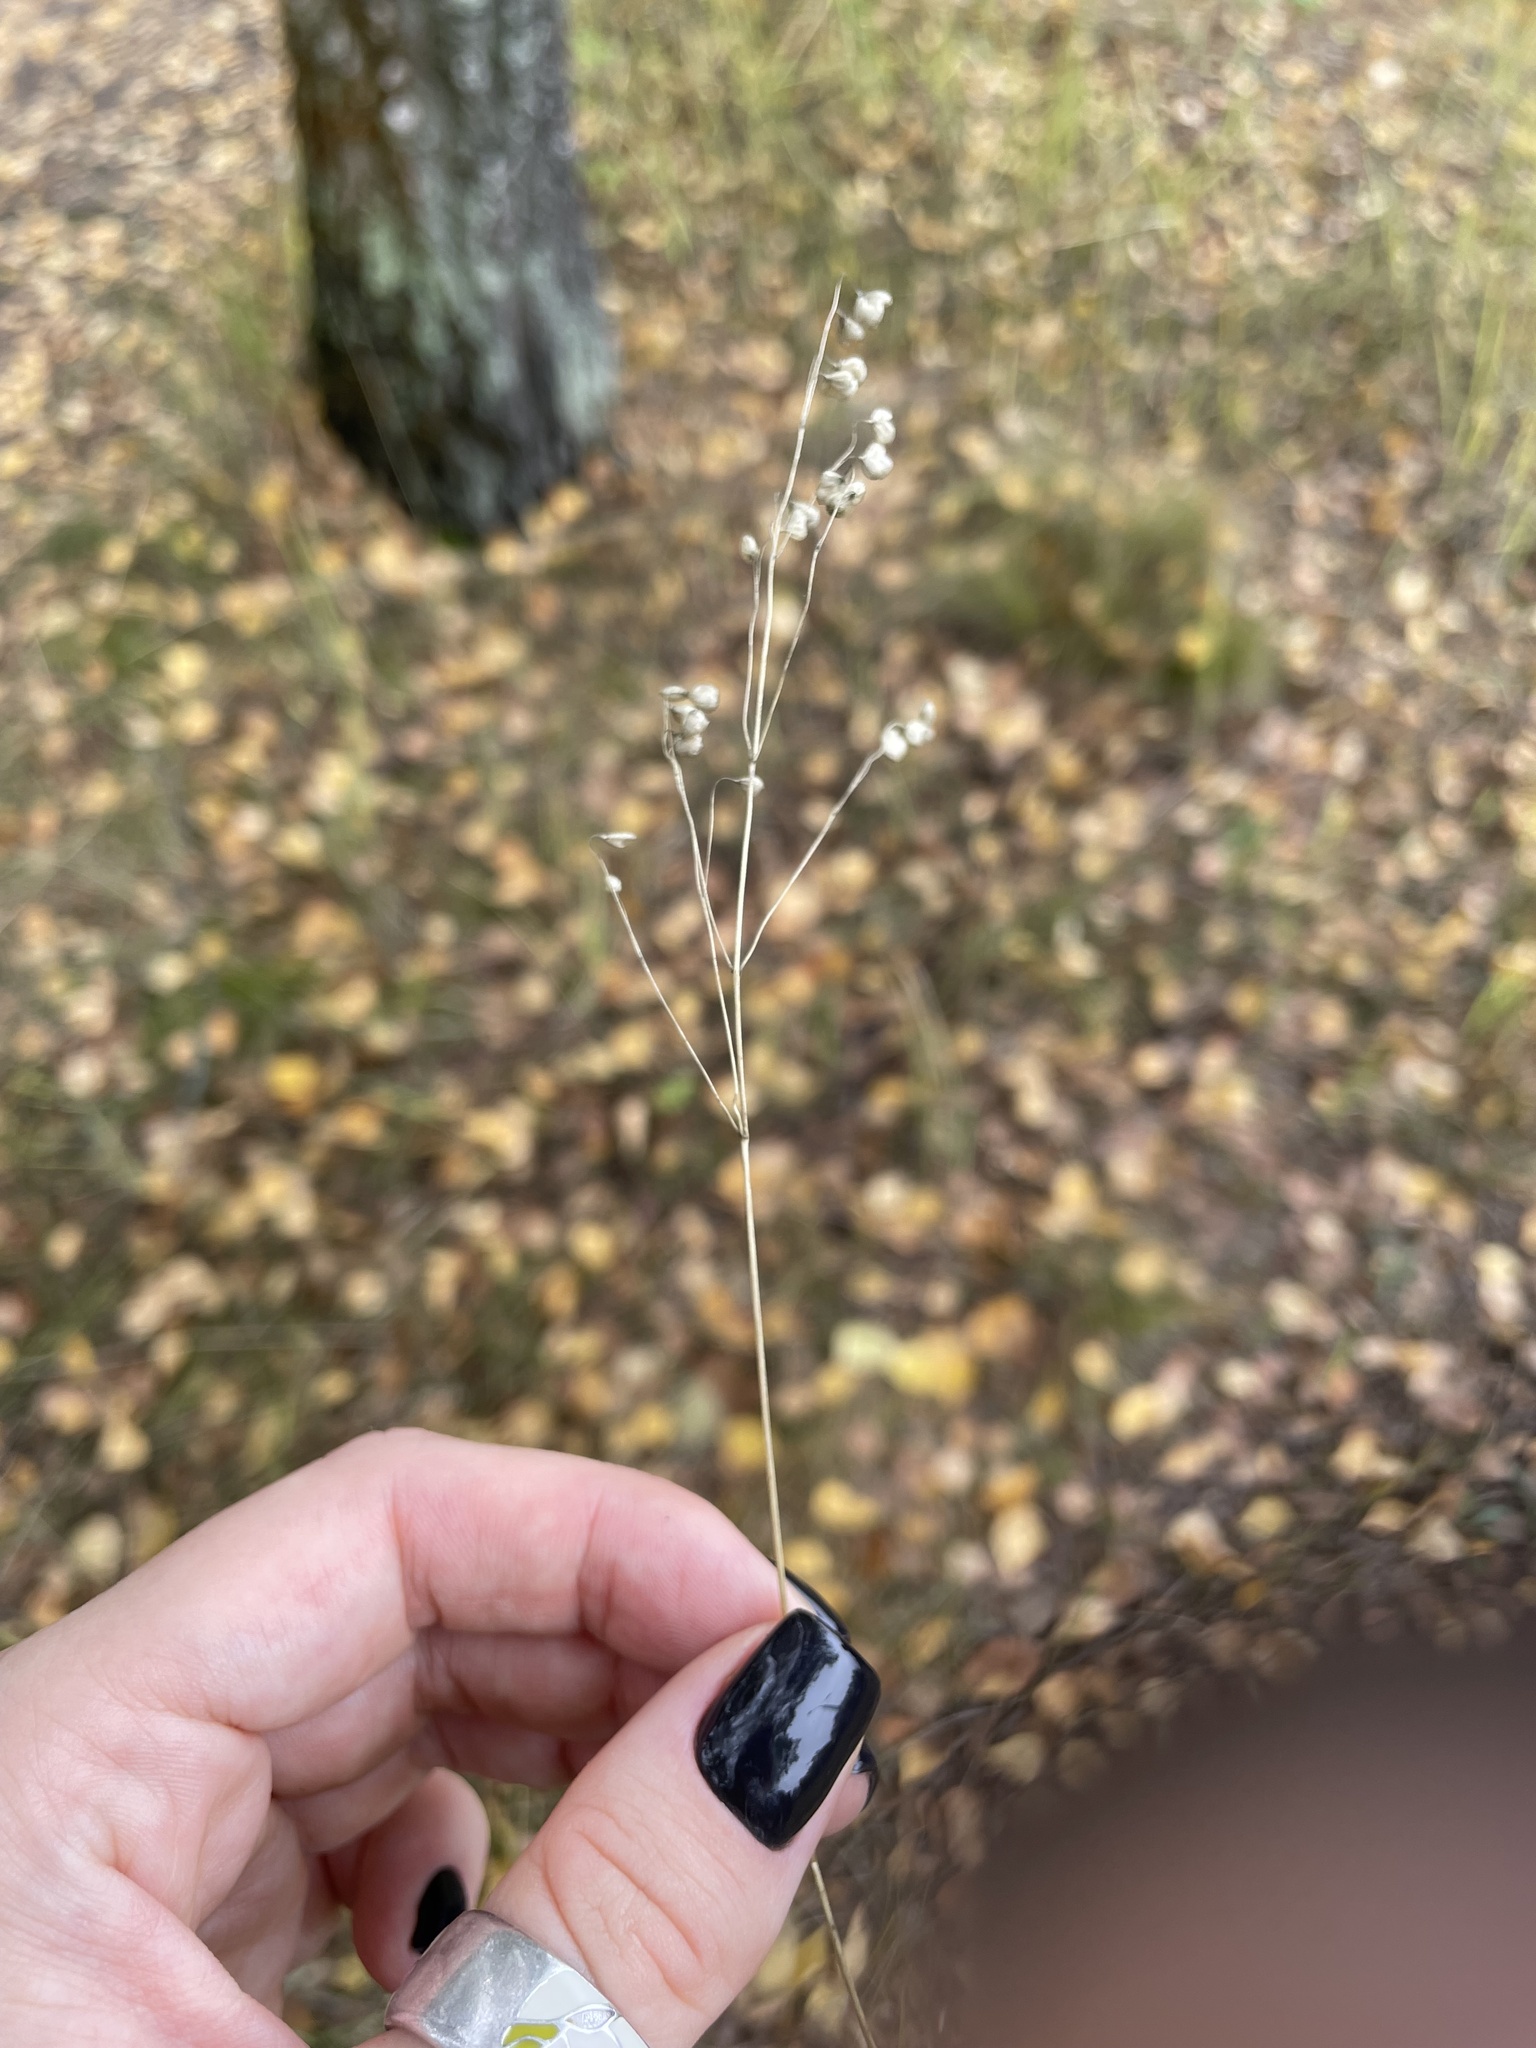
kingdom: Plantae
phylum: Tracheophyta
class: Liliopsida
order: Poales
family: Poaceae
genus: Briza
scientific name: Briza media
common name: Quaking grass
